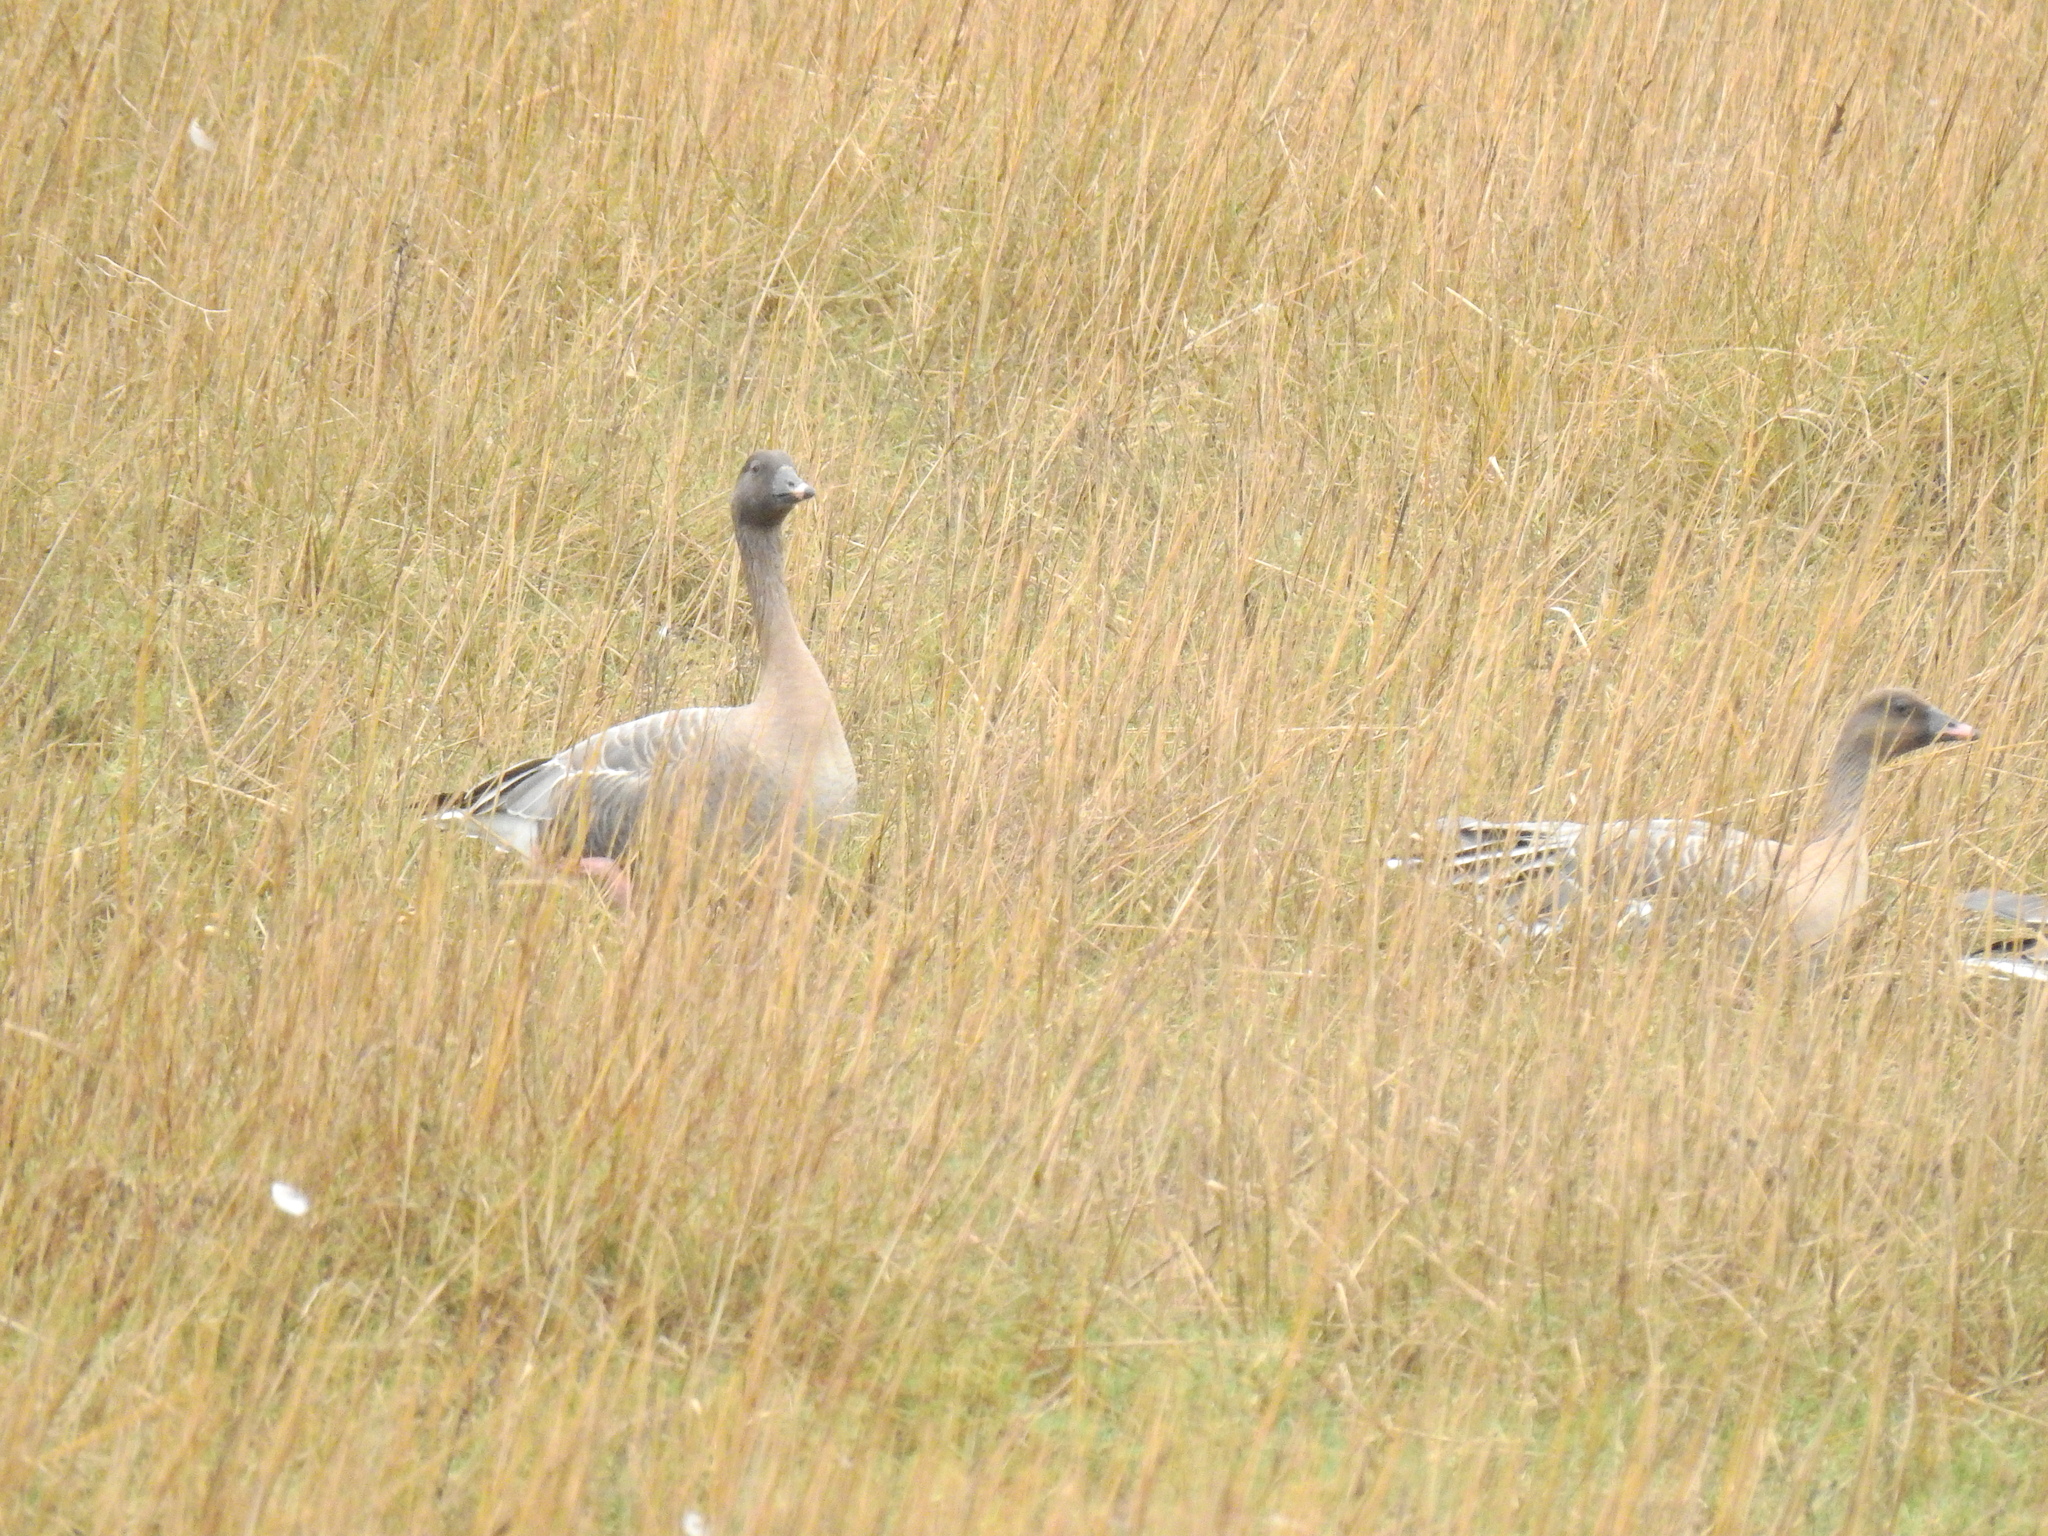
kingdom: Animalia
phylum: Chordata
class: Aves
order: Anseriformes
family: Anatidae
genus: Anser
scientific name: Anser brachyrhynchus
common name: Pink-footed goose
